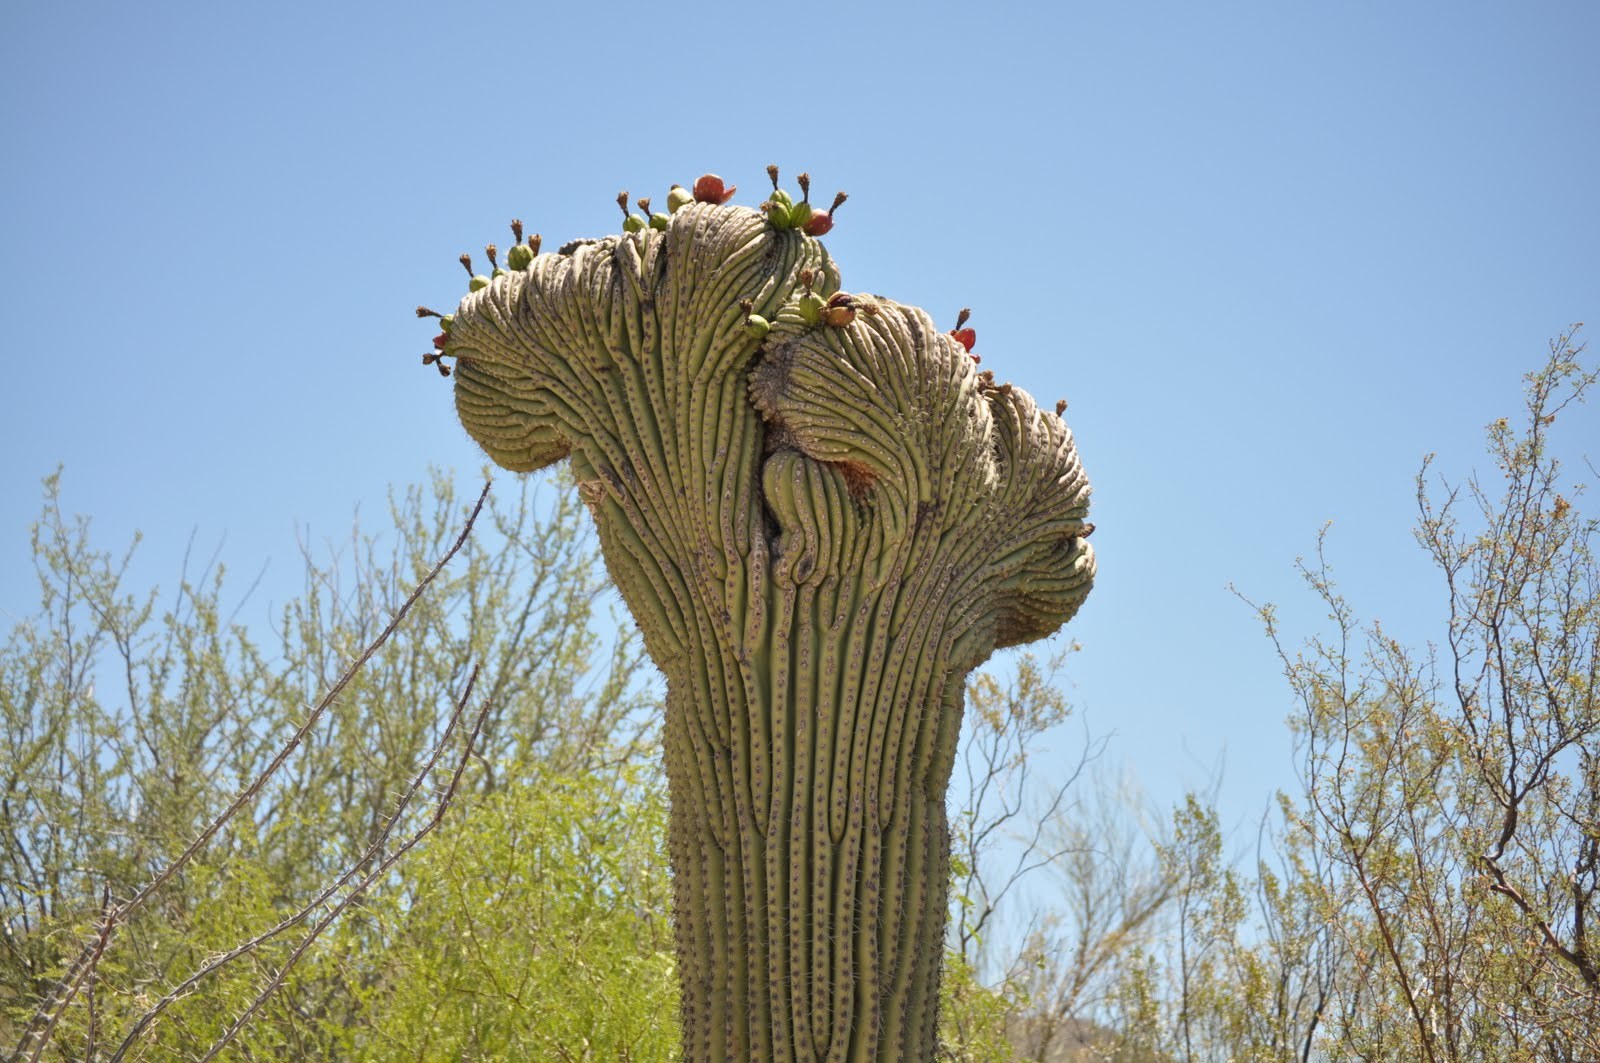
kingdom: Plantae
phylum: Tracheophyta
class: Magnoliopsida
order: Caryophyllales
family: Cactaceae
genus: Carnegiea
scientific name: Carnegiea gigantea
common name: Saguaro
